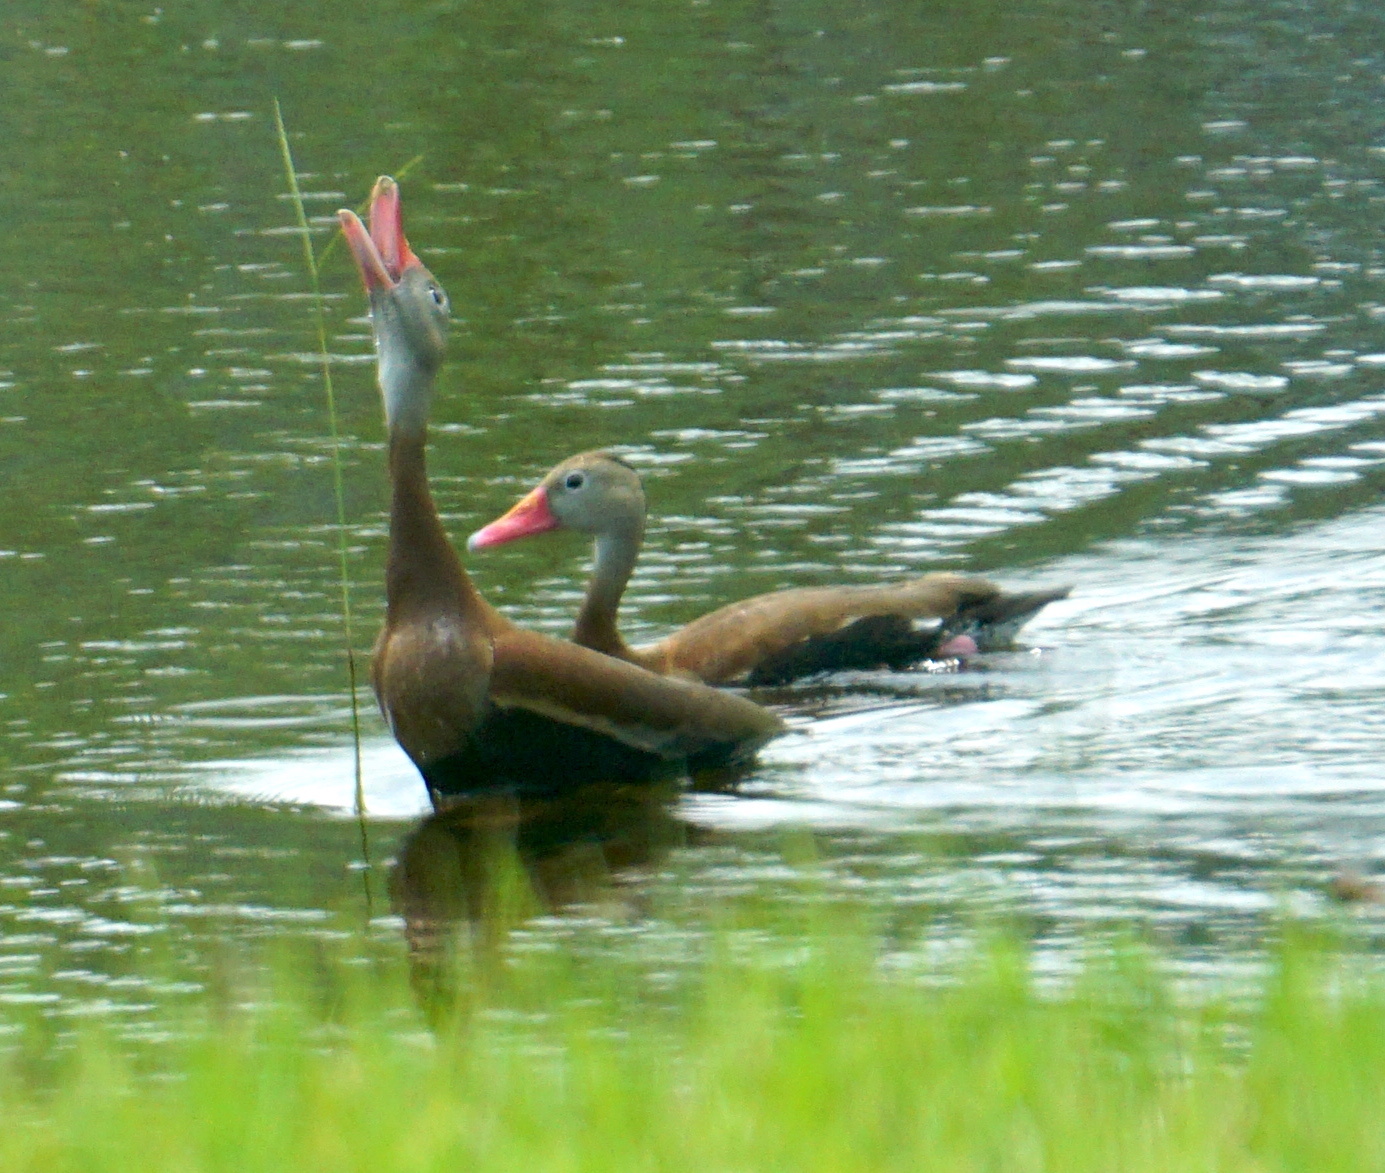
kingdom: Animalia
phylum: Chordata
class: Aves
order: Anseriformes
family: Anatidae
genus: Dendrocygna
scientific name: Dendrocygna autumnalis
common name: Black-bellied whistling duck
